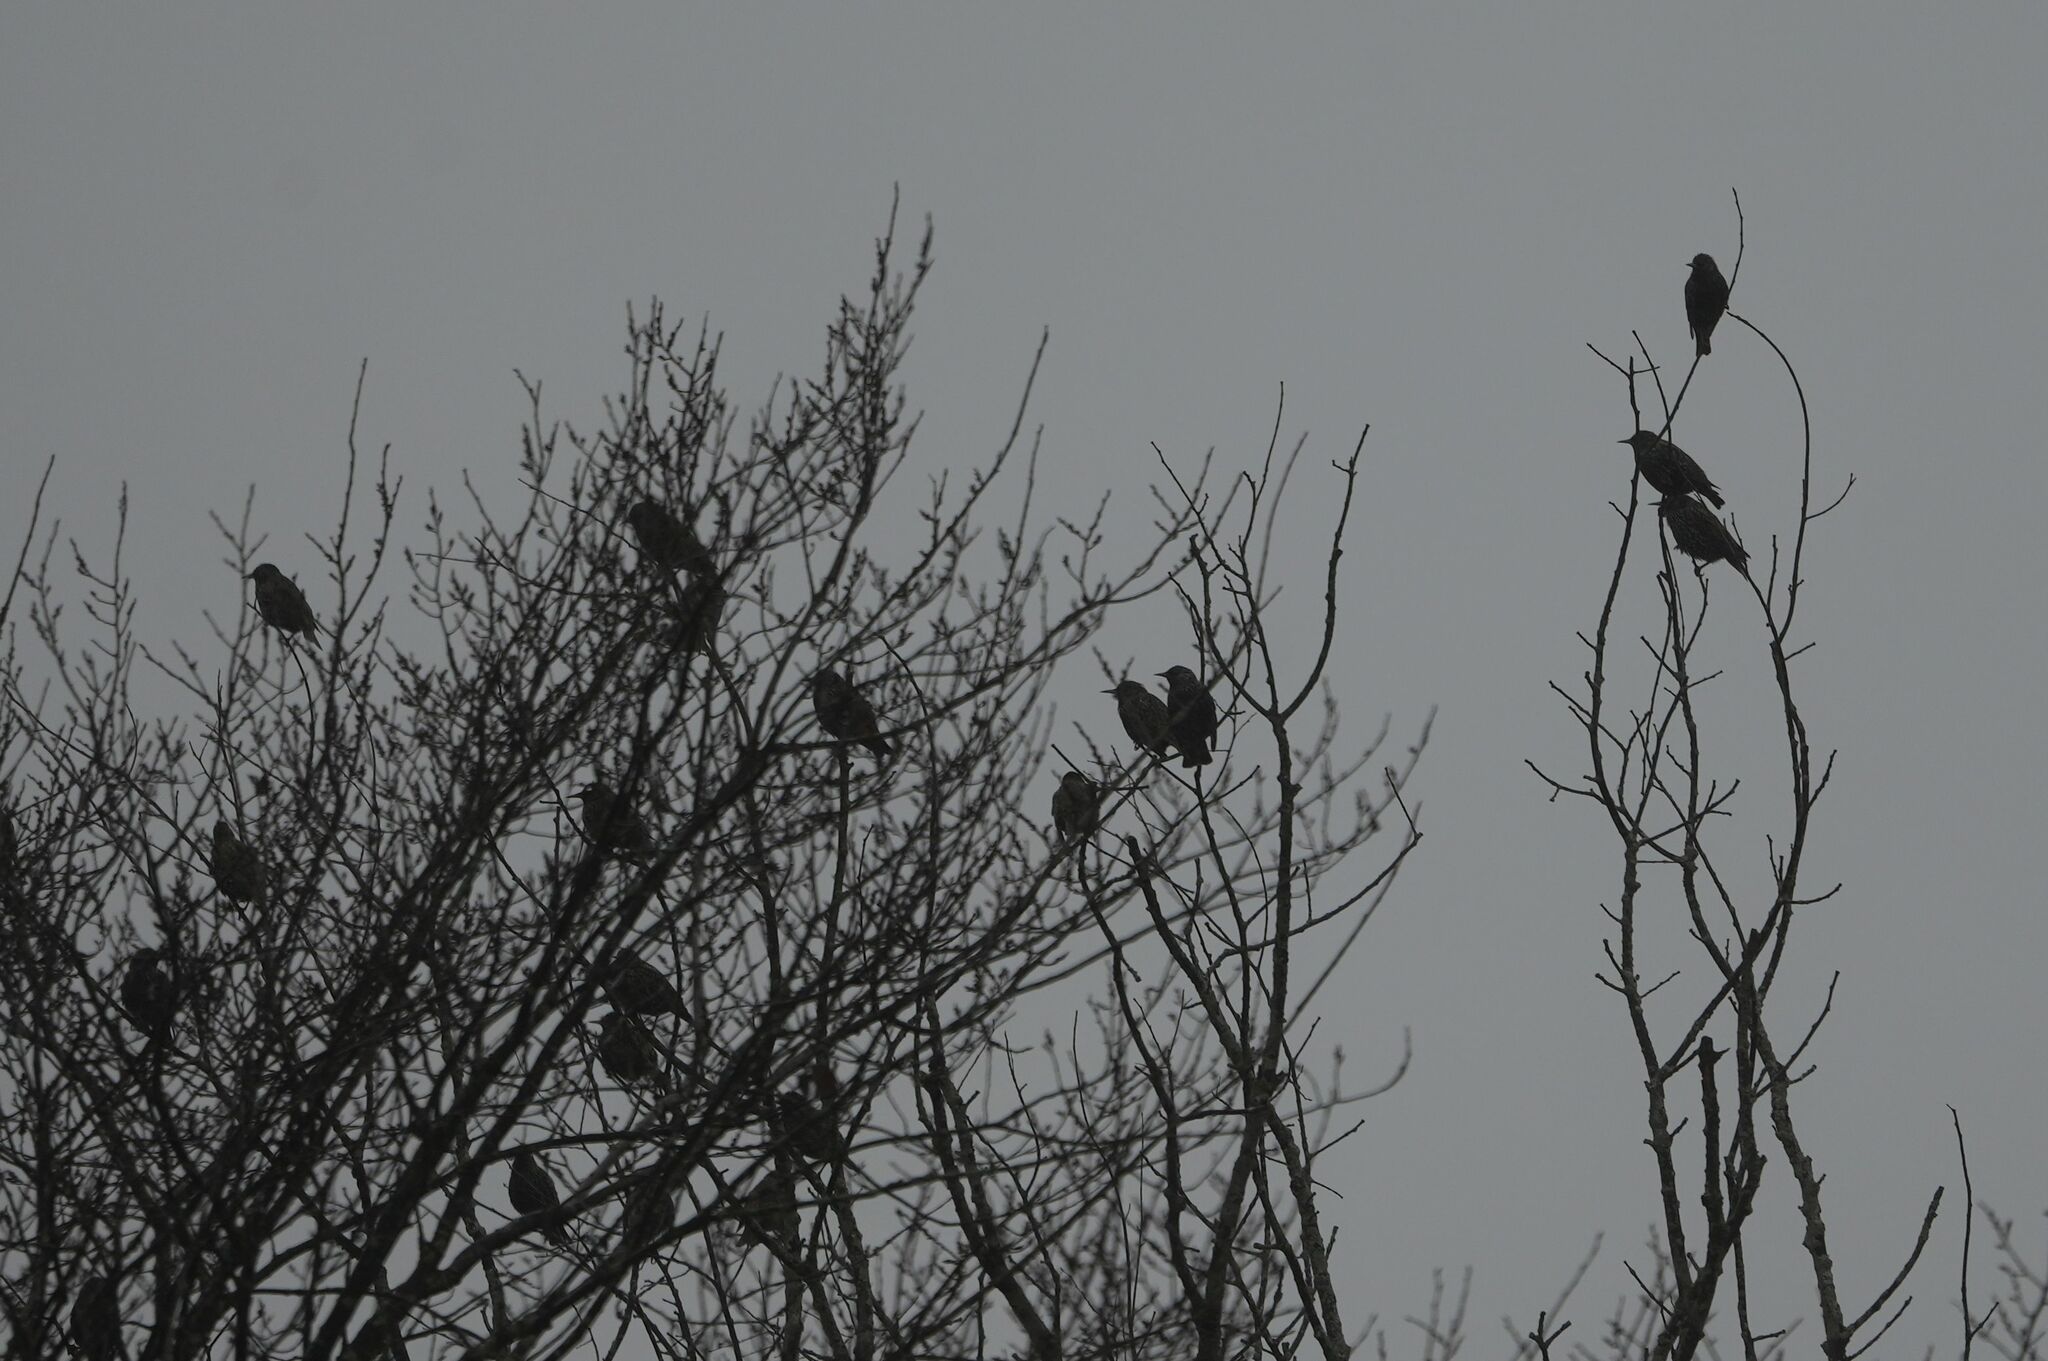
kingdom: Animalia
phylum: Chordata
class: Aves
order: Passeriformes
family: Sturnidae
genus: Sturnus
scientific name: Sturnus vulgaris
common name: Common starling
